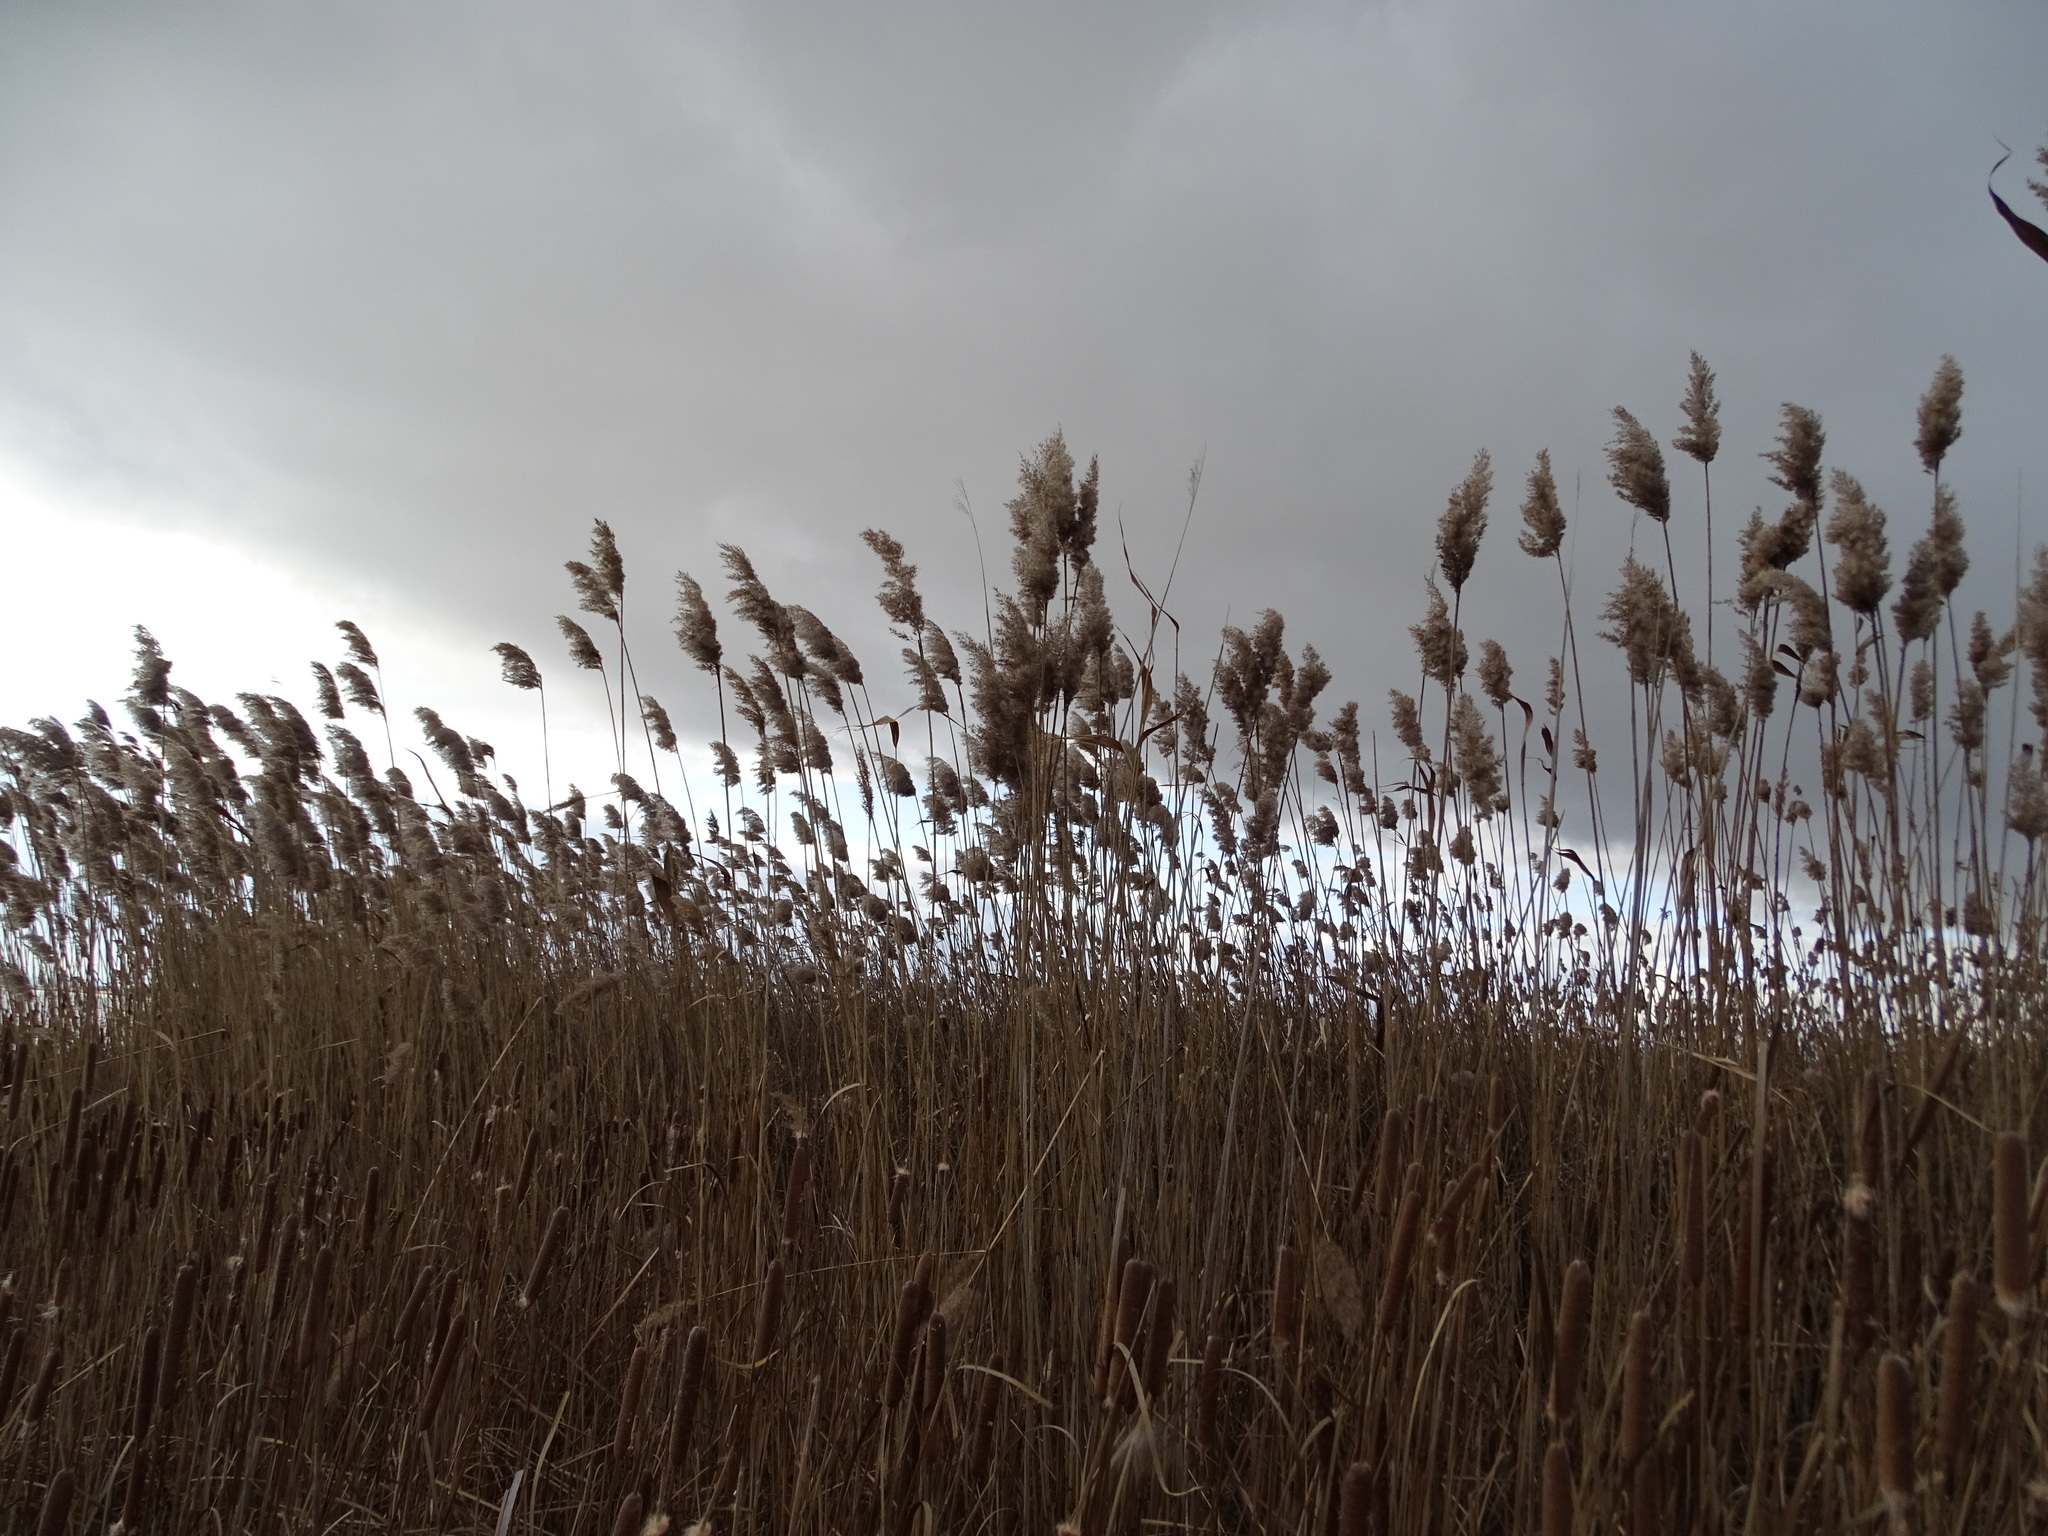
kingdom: Plantae
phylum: Tracheophyta
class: Liliopsida
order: Poales
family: Poaceae
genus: Phragmites
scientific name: Phragmites australis
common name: Common reed
